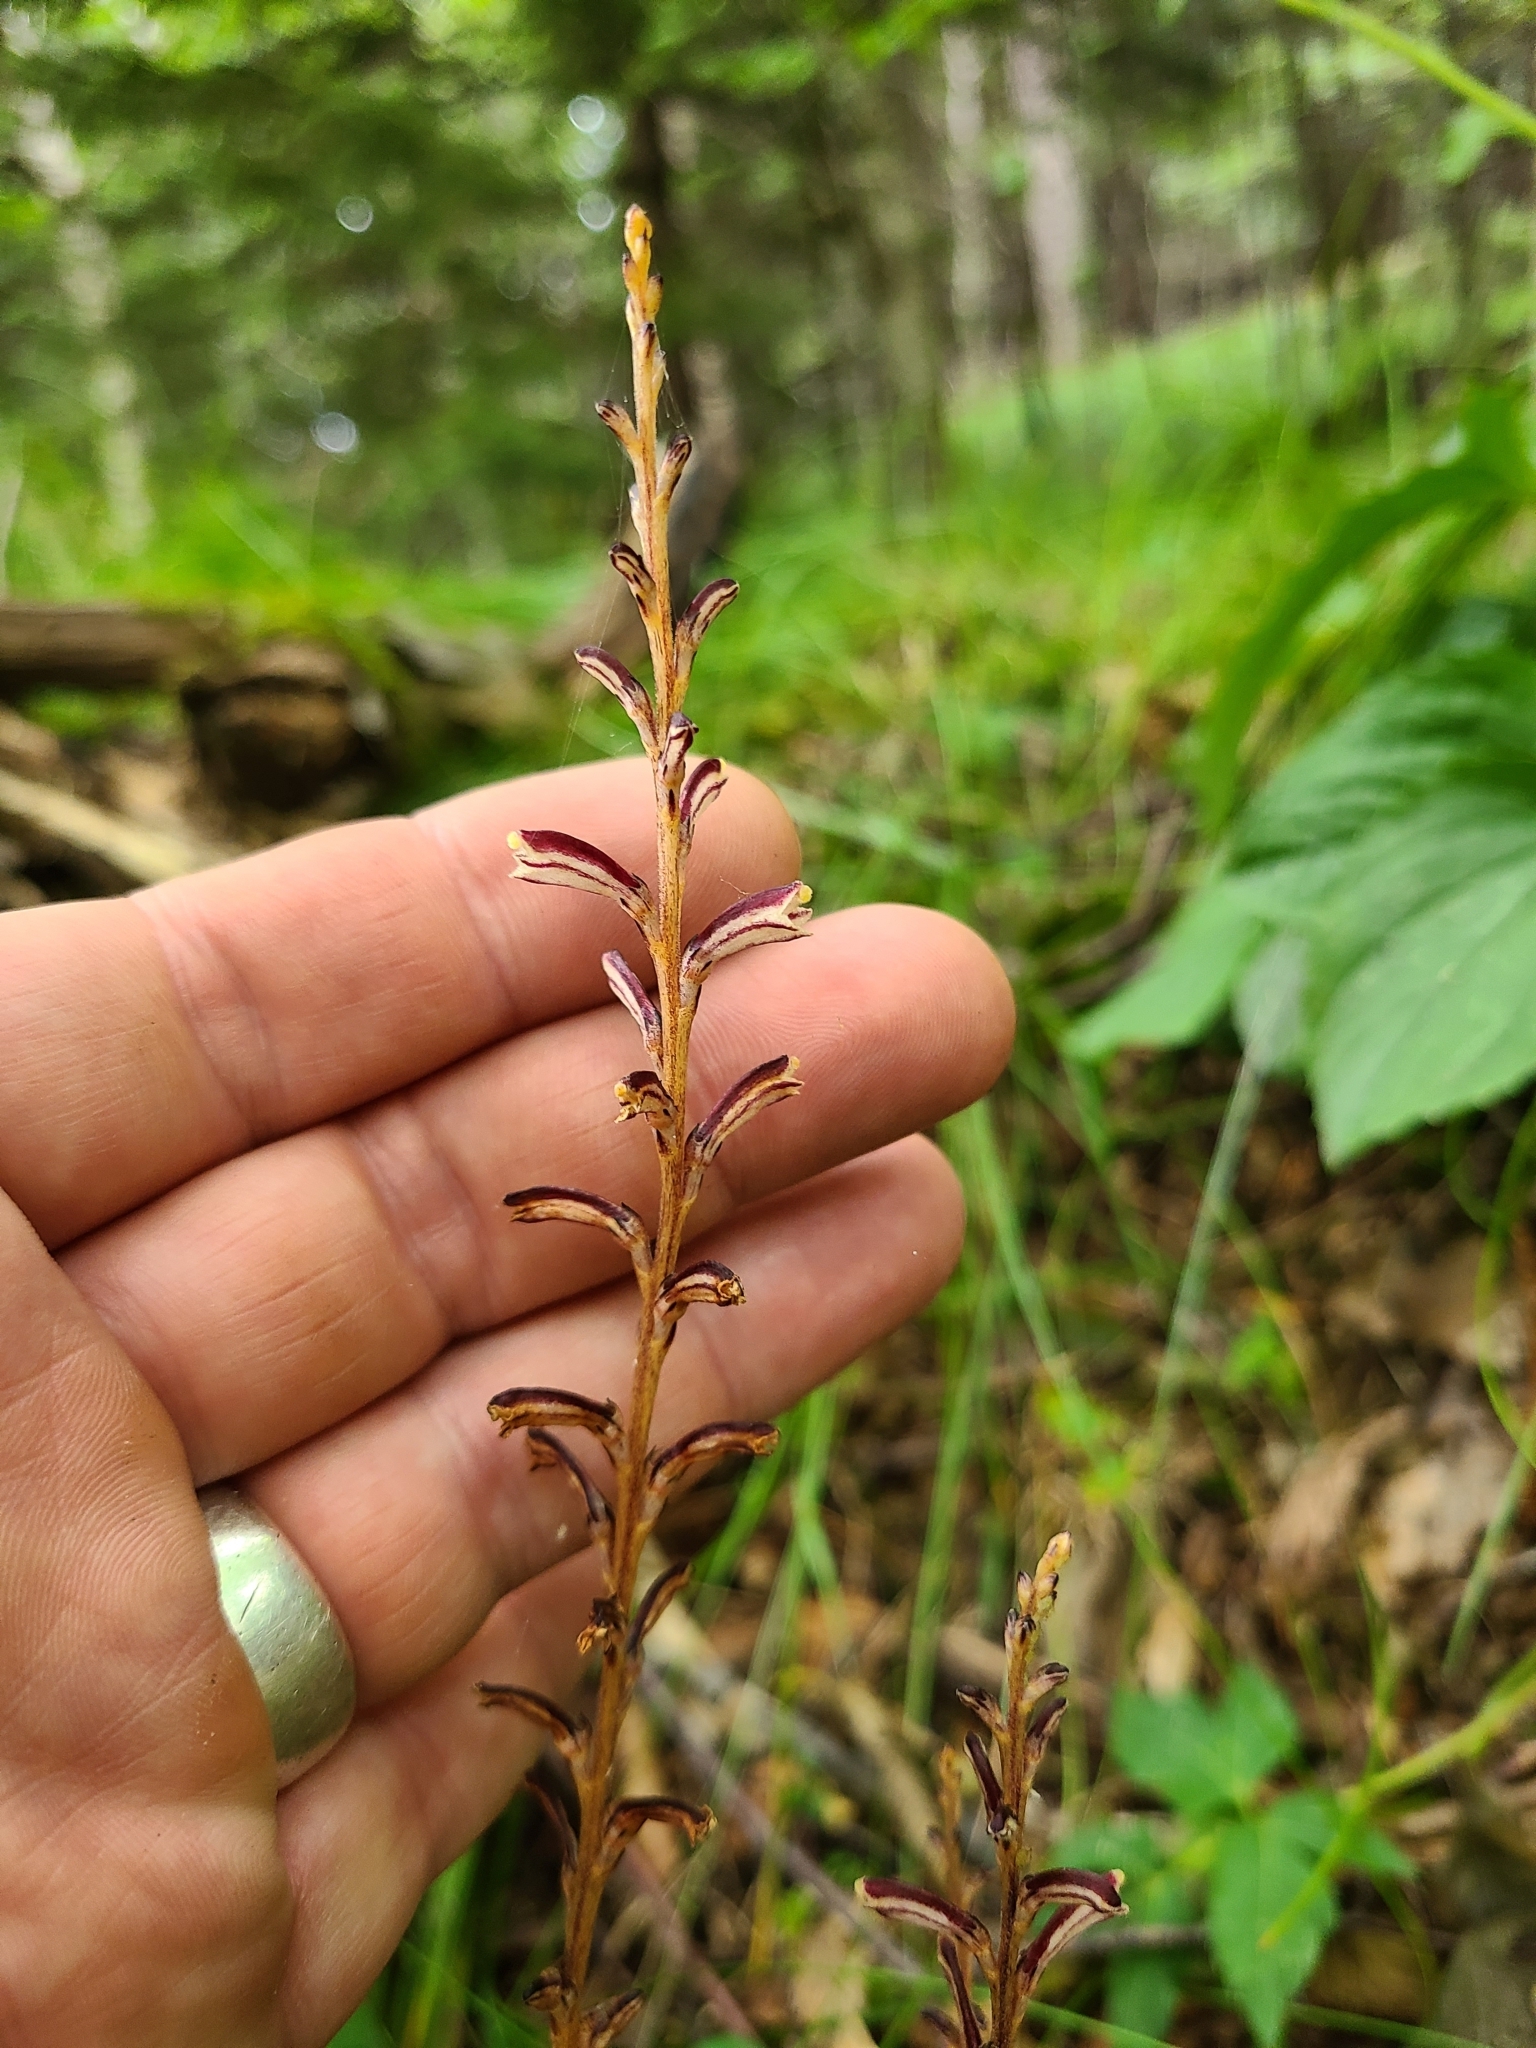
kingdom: Plantae
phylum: Tracheophyta
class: Magnoliopsida
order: Lamiales
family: Orobanchaceae
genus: Epifagus
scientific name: Epifagus virginiana
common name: Beechdrops
